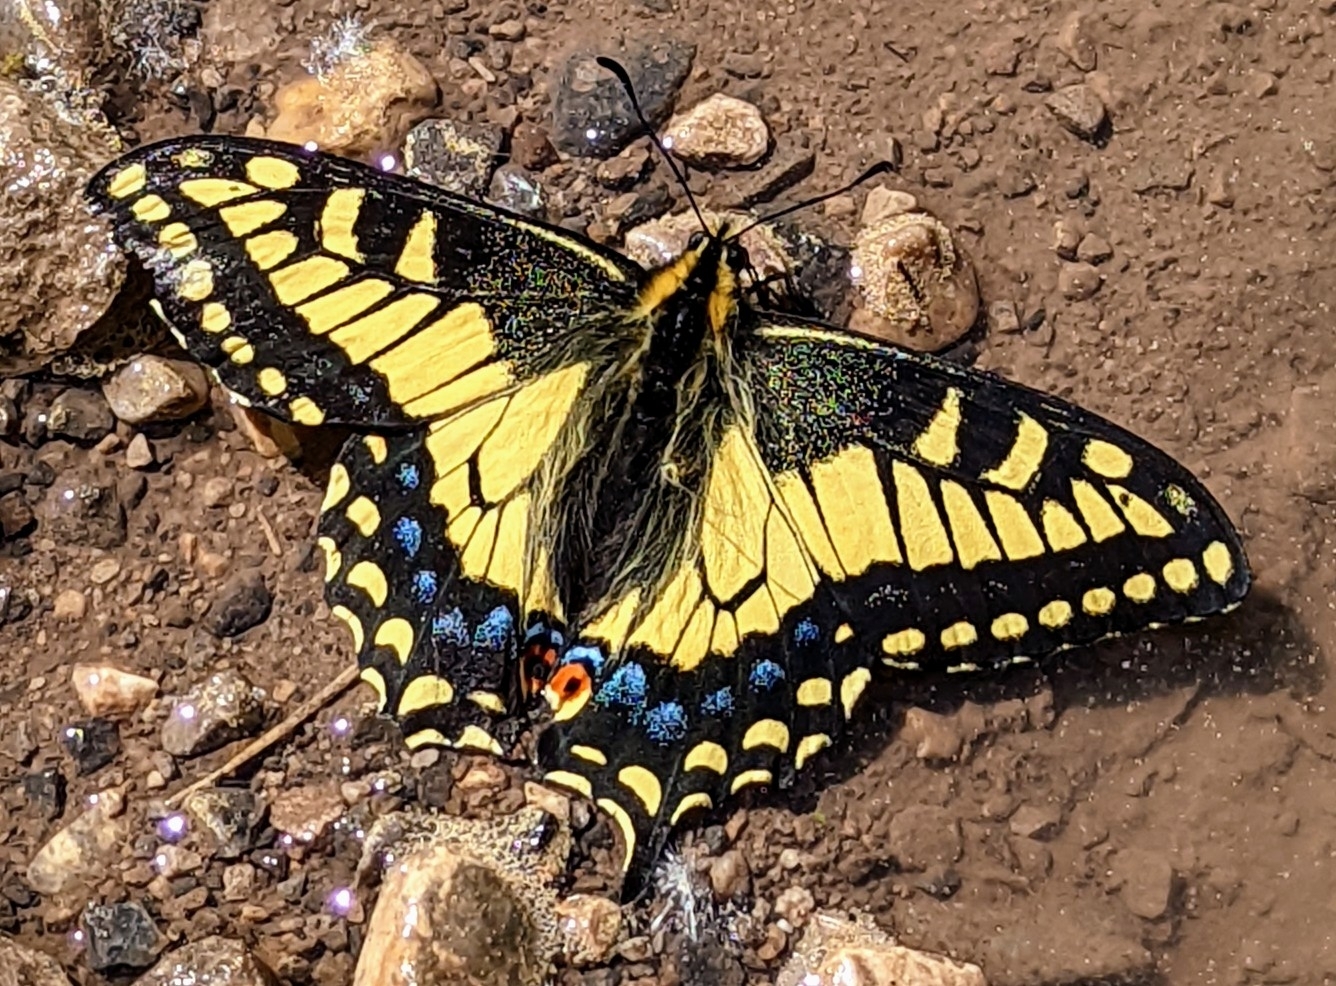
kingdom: Animalia
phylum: Arthropoda
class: Insecta
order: Lepidoptera
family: Papilionidae
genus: Papilio
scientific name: Papilio zelicaon
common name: Anise swallowtail
